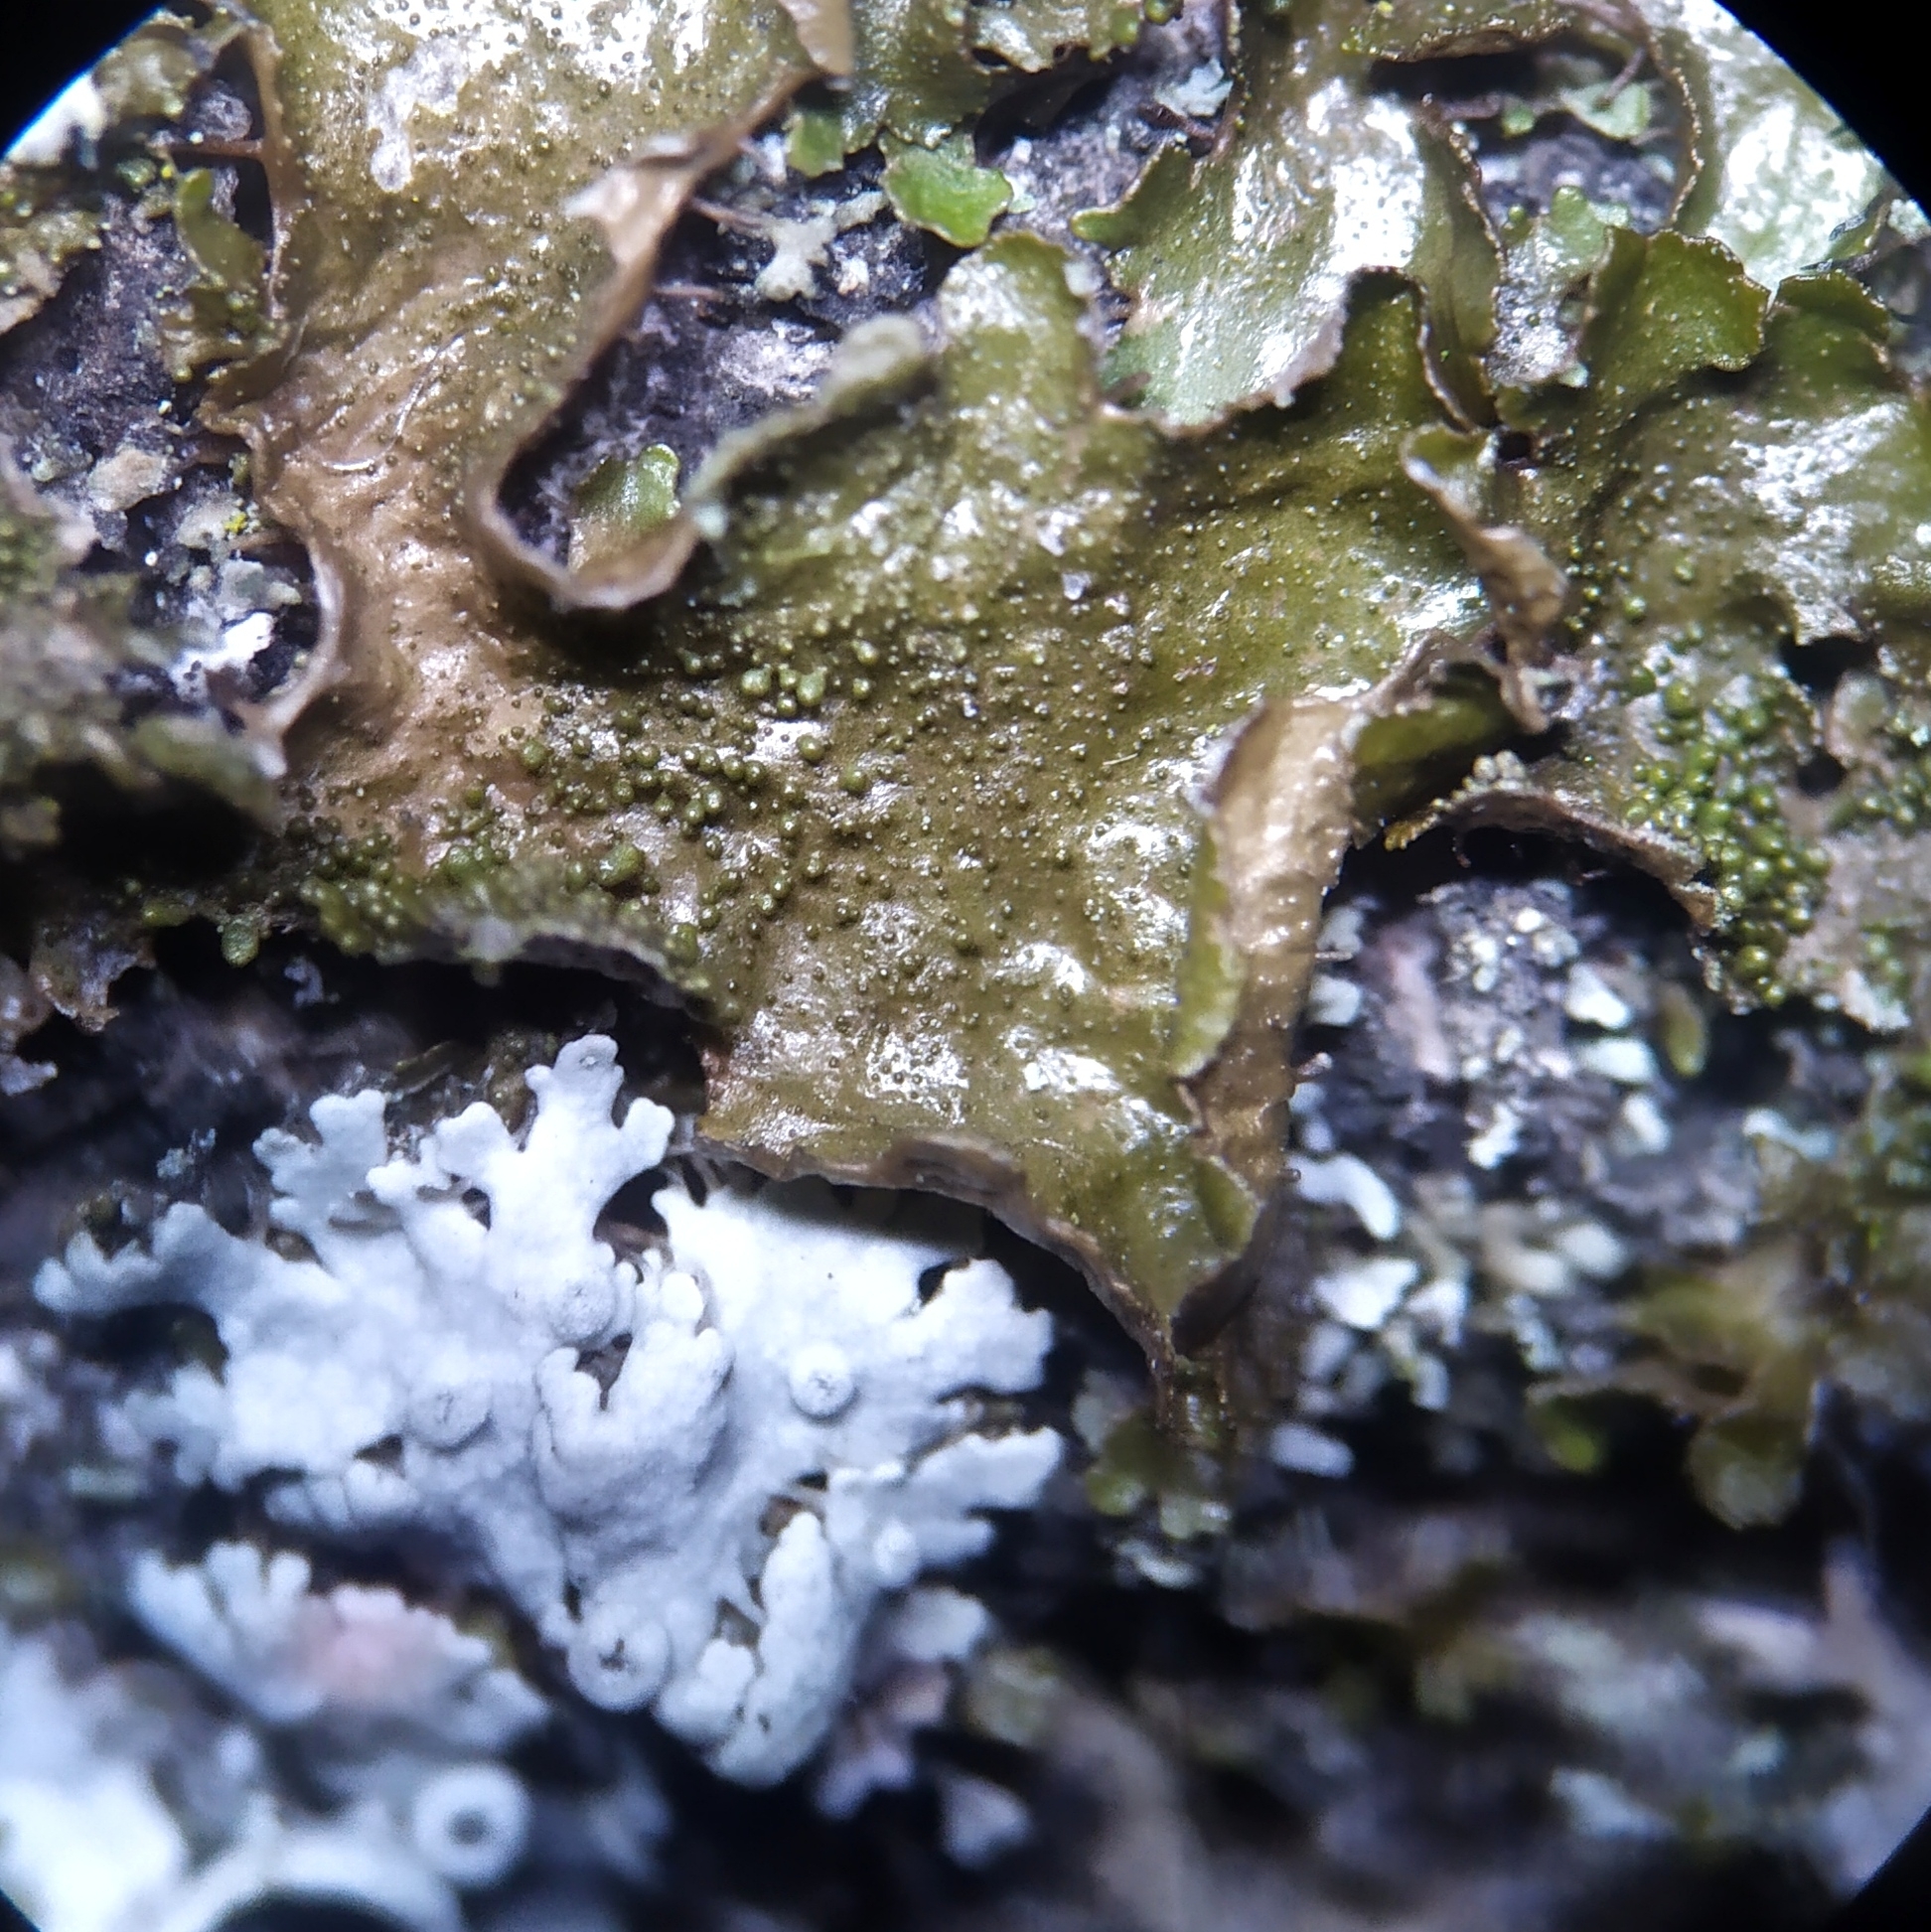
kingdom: Fungi
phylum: Ascomycota
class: Lecanoromycetes
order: Lecanorales
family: Parmeliaceae
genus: Melanohalea
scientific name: Melanohalea exasperatula
